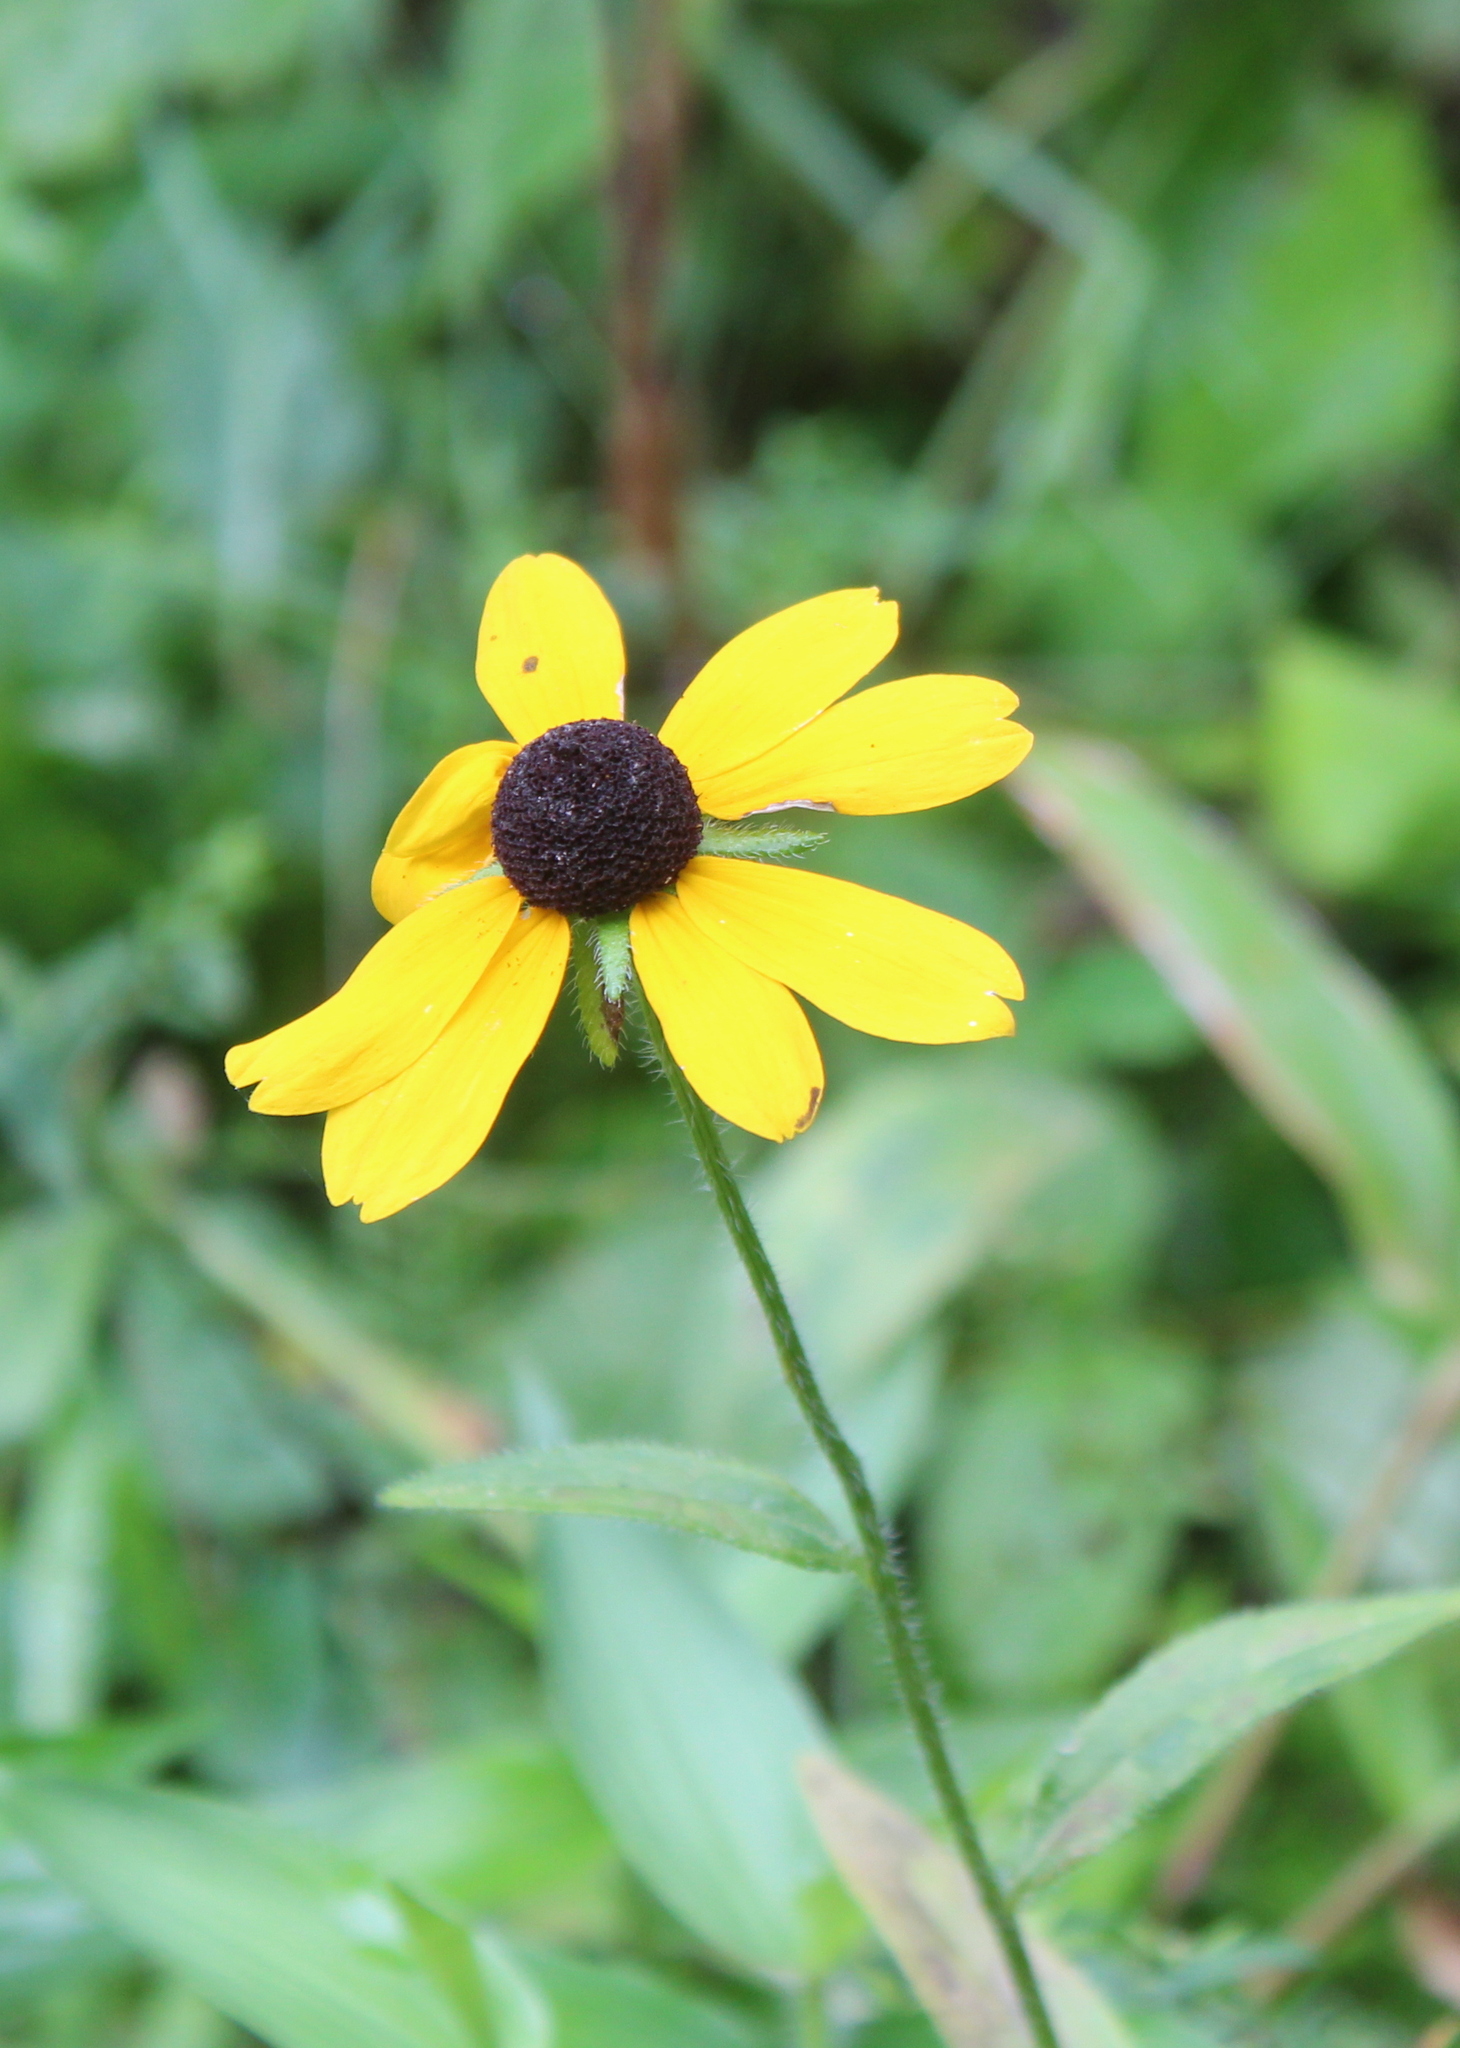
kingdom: Plantae
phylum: Tracheophyta
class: Magnoliopsida
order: Asterales
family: Asteraceae
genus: Rudbeckia
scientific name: Rudbeckia hirta
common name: Black-eyed-susan
